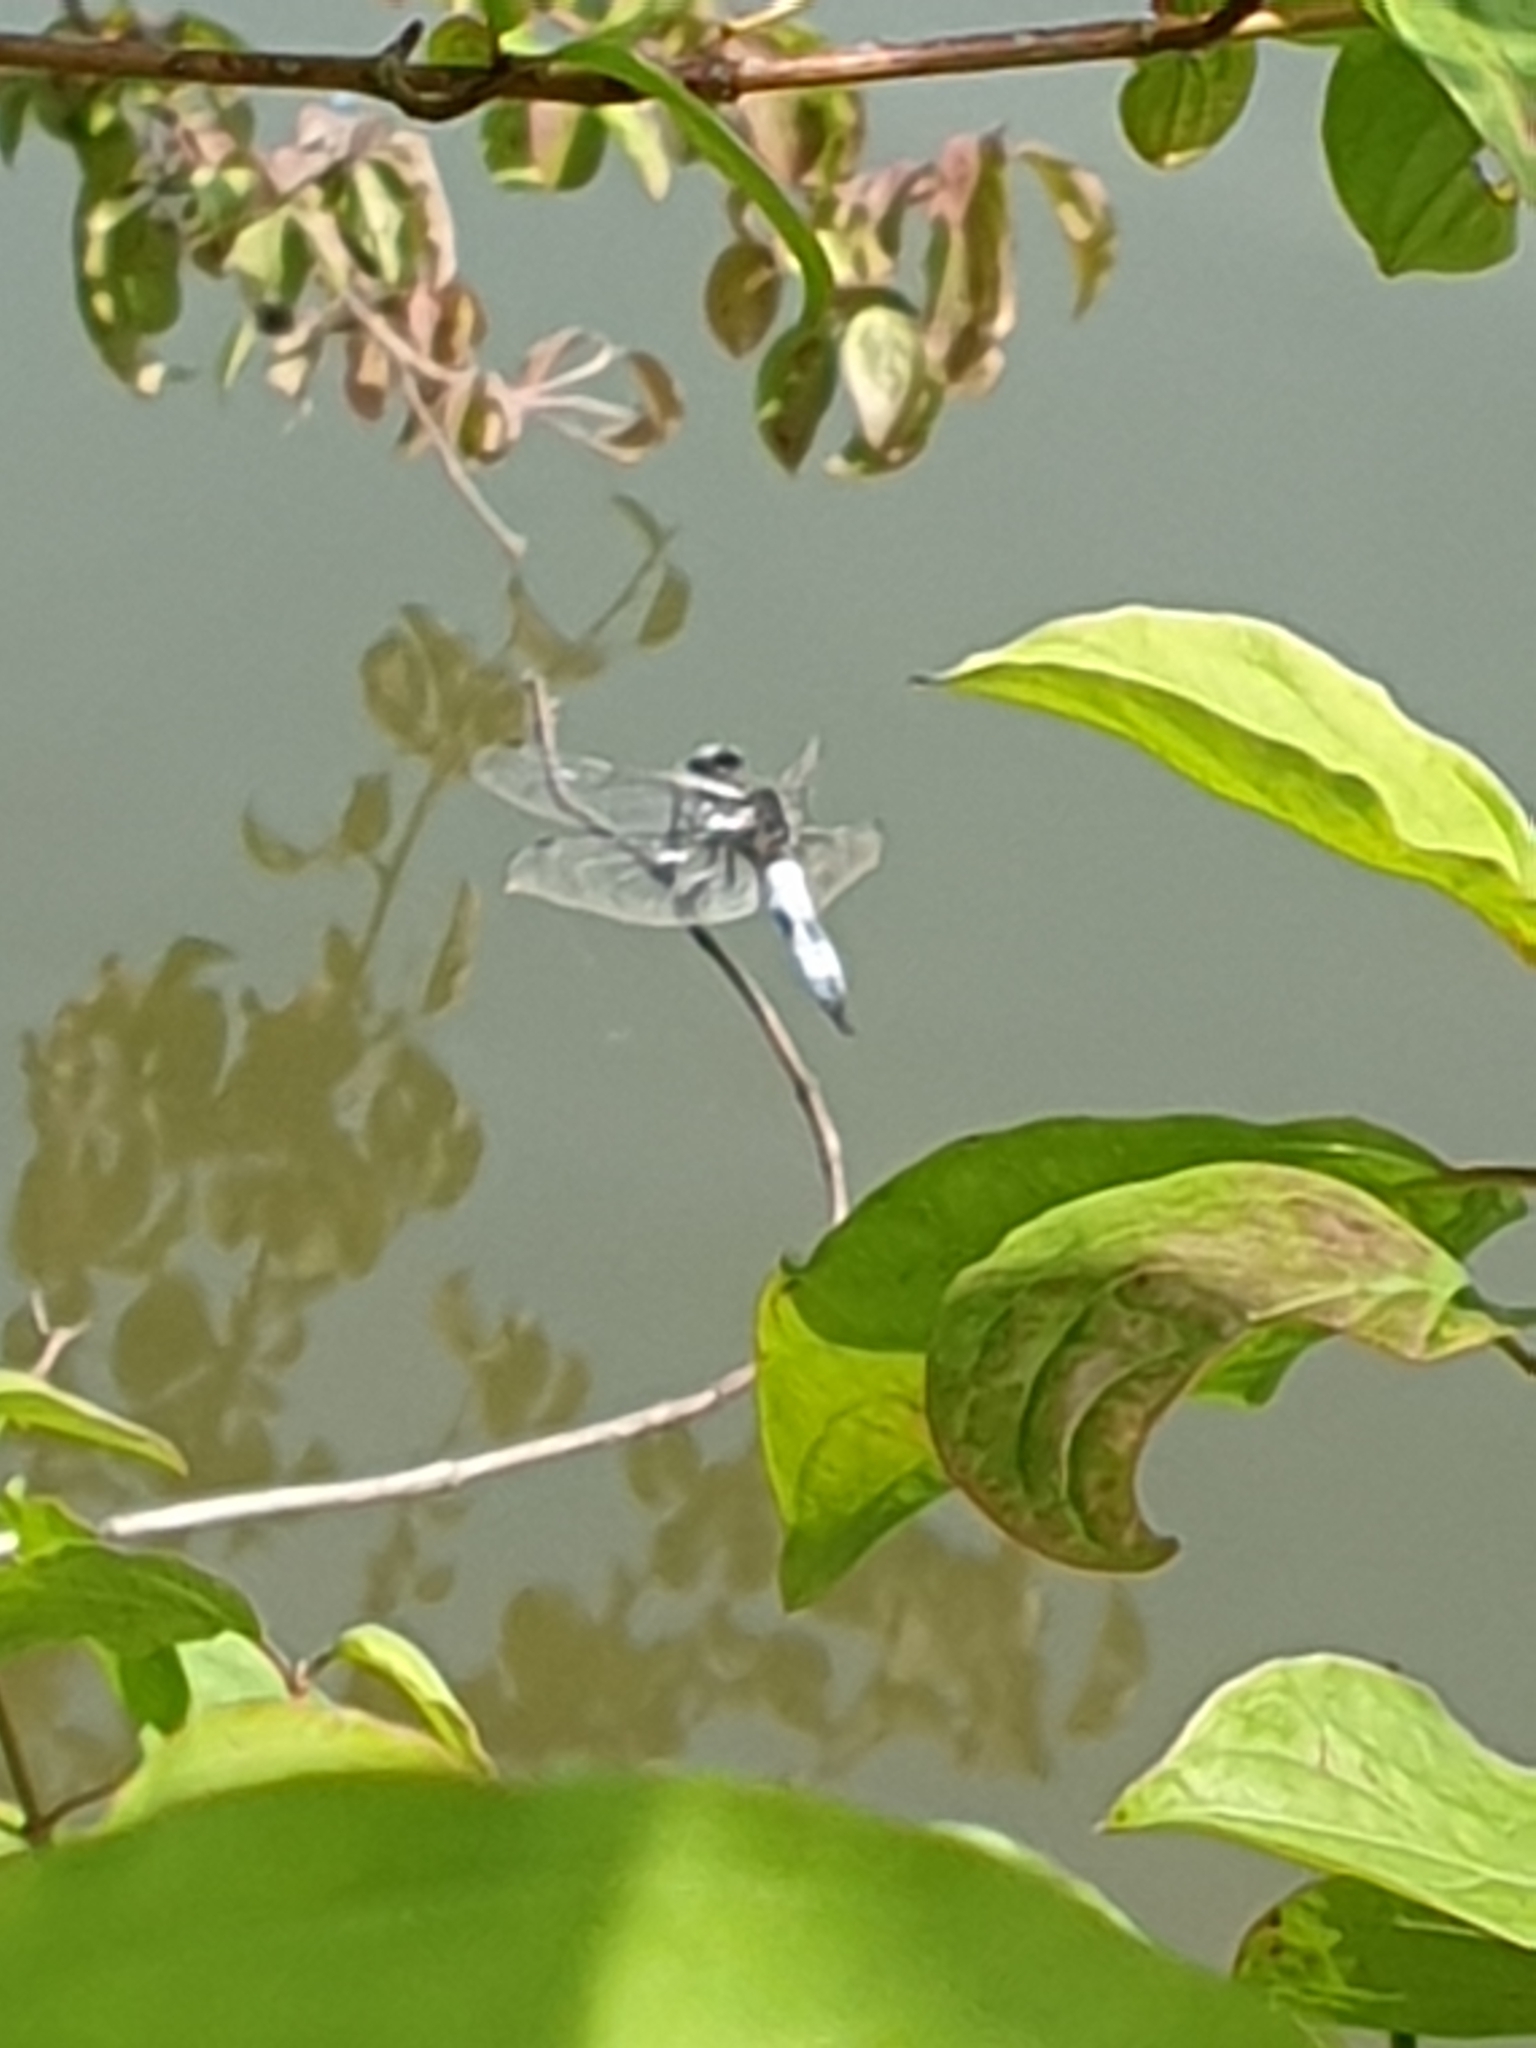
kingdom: Animalia
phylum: Arthropoda
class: Insecta
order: Odonata
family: Libellulidae
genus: Libellula
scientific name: Libellula fulva
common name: Blue chaser
